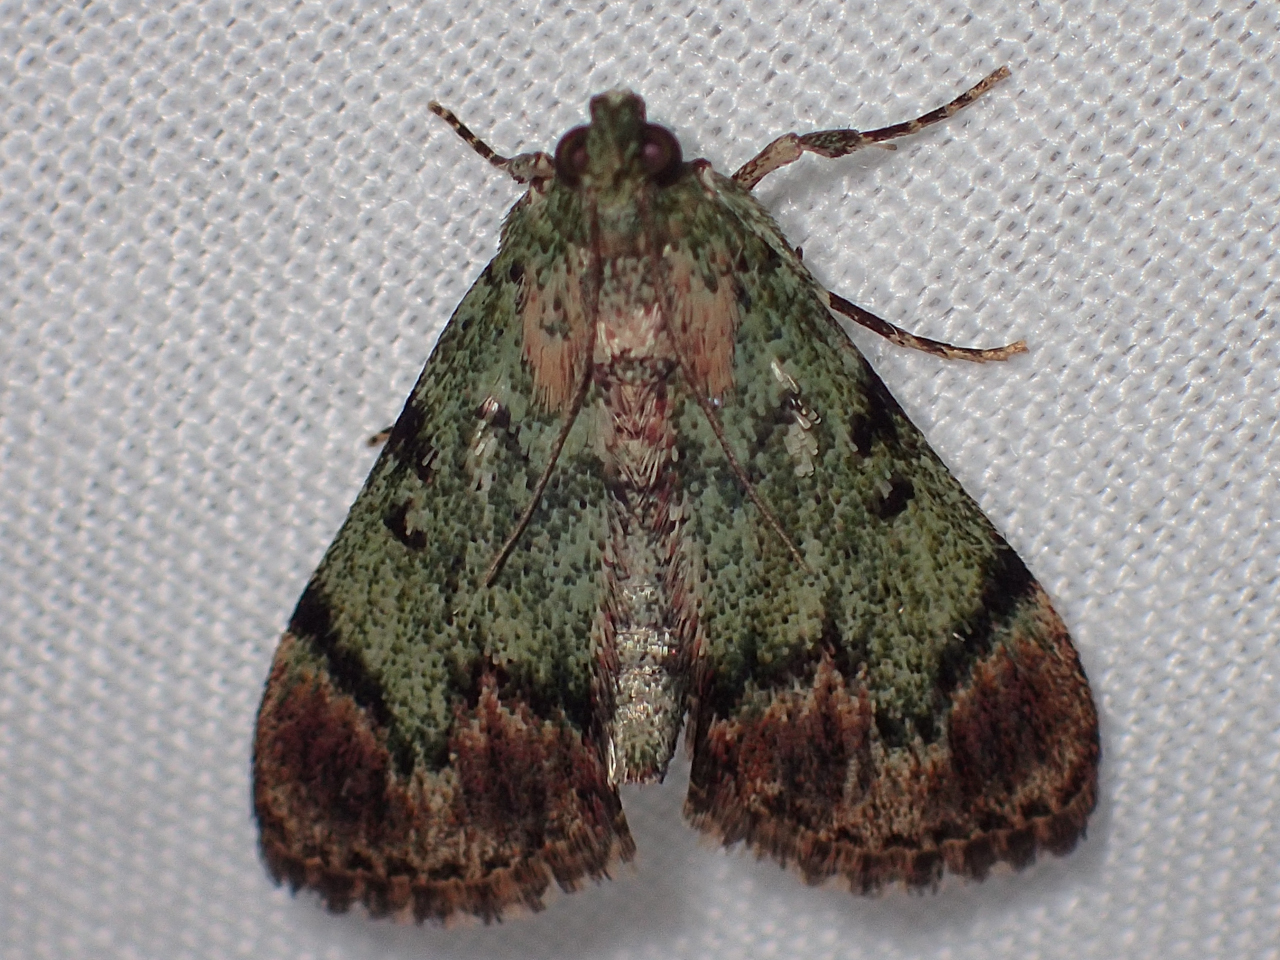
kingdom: Animalia
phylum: Arthropoda
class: Insecta
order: Lepidoptera
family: Pyralidae
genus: Epipaschia
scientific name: Epipaschia superatalis
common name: Dimorphic macalla moth
